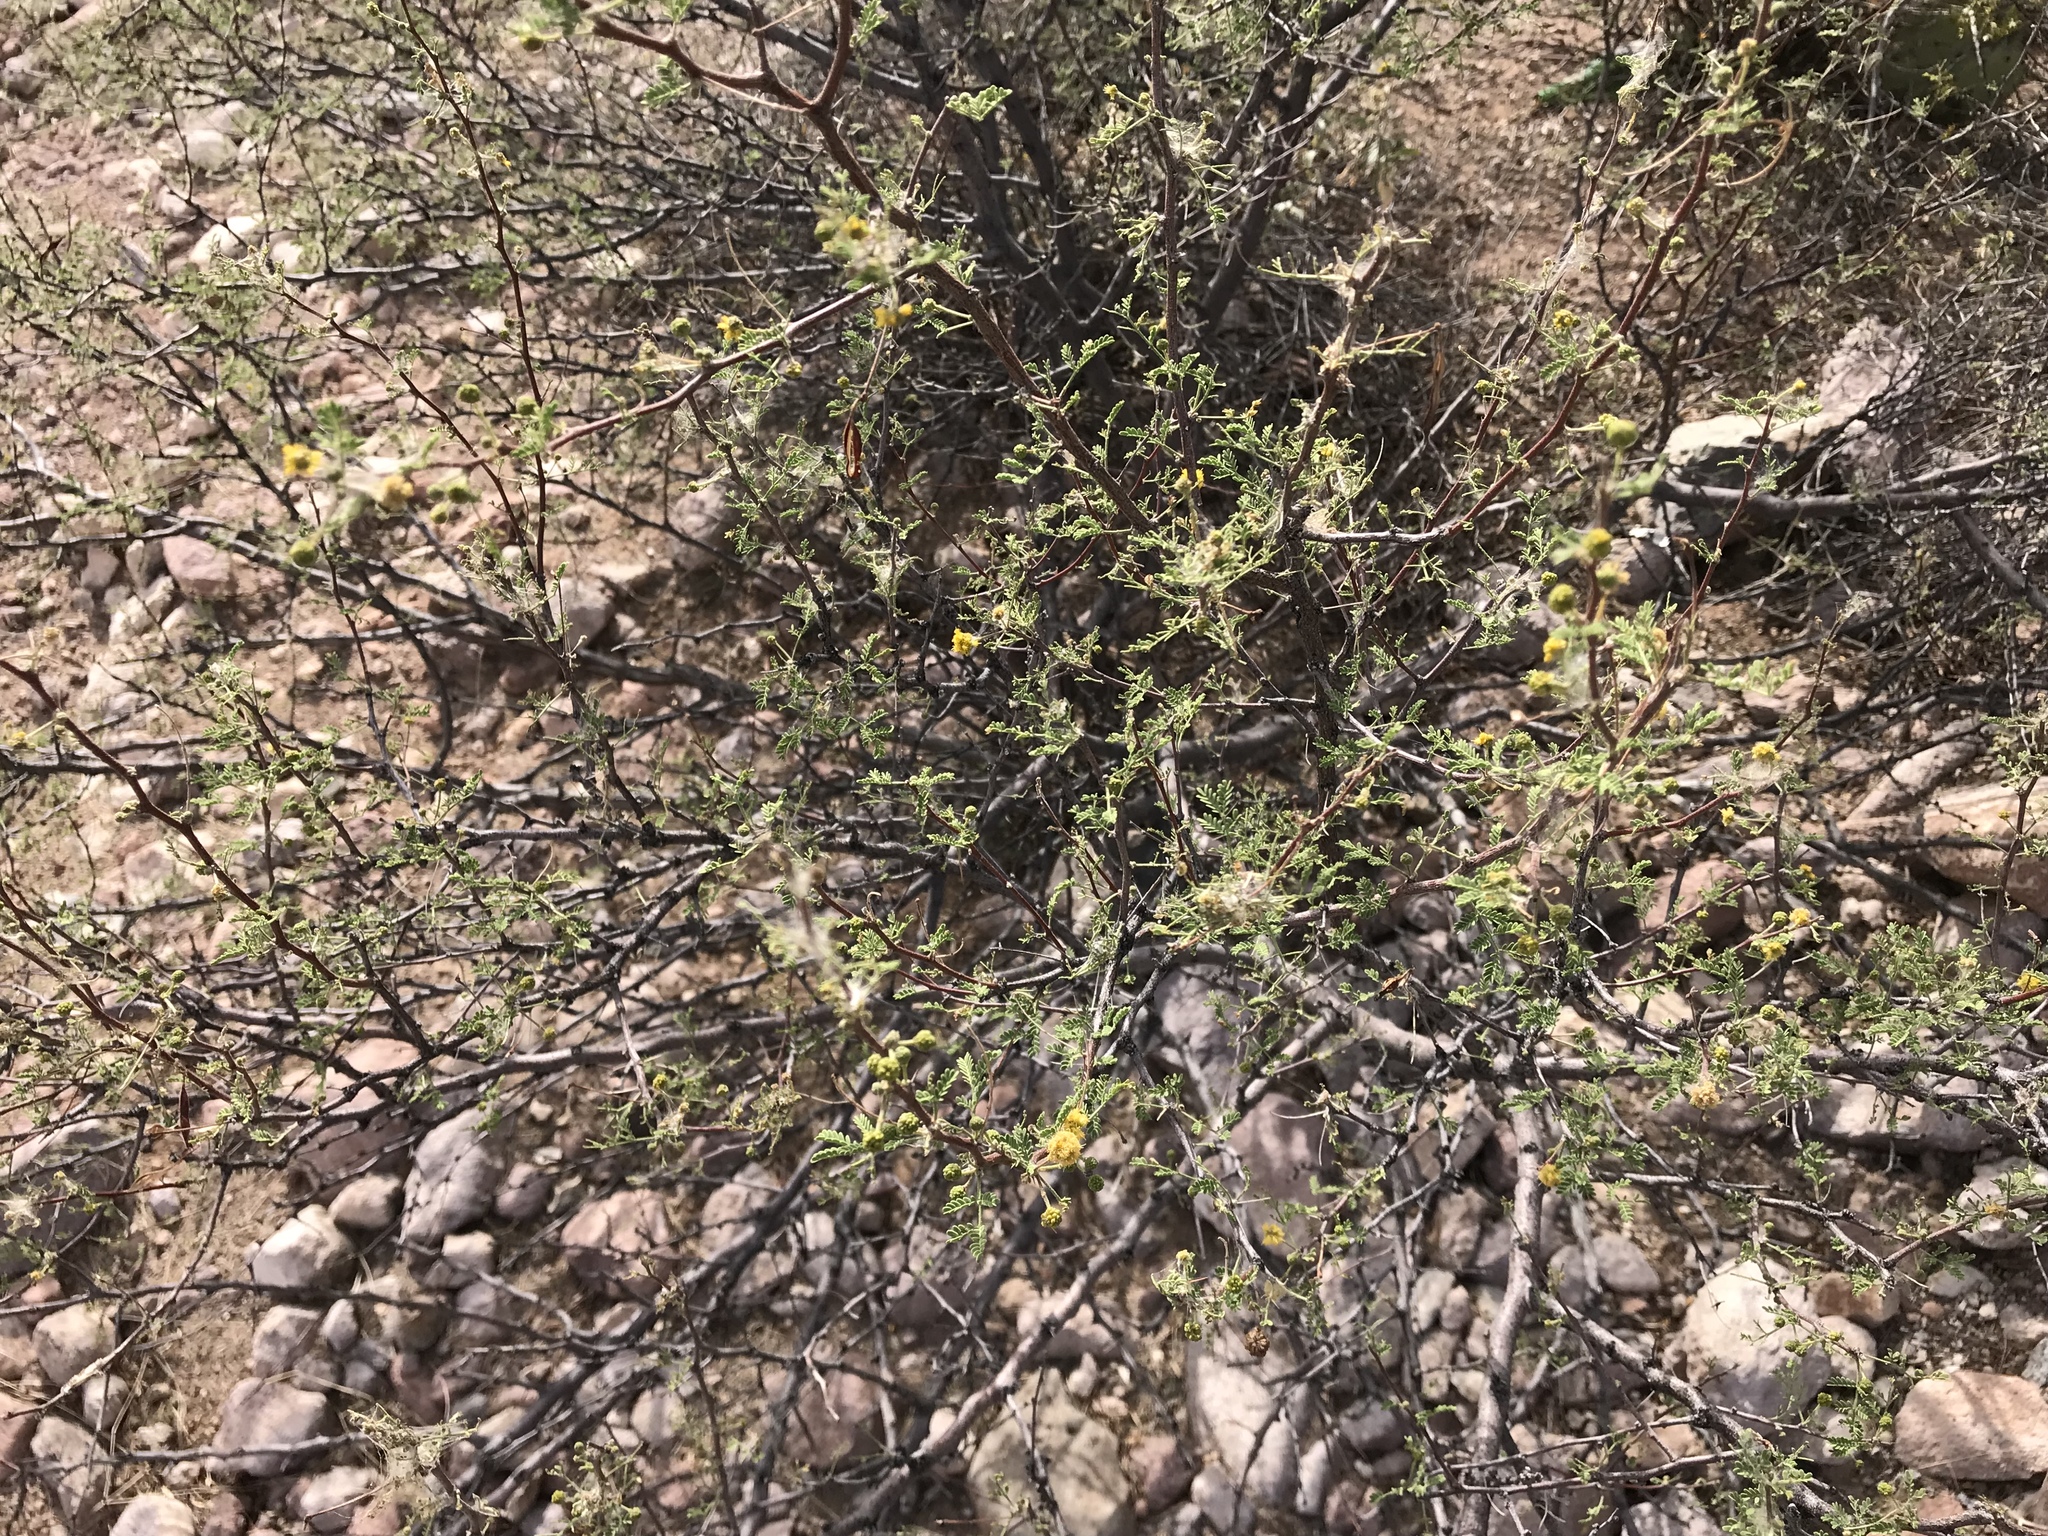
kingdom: Plantae
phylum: Tracheophyta
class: Magnoliopsida
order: Fabales
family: Fabaceae
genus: Vachellia
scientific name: Vachellia constricta
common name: Mescat acacia
